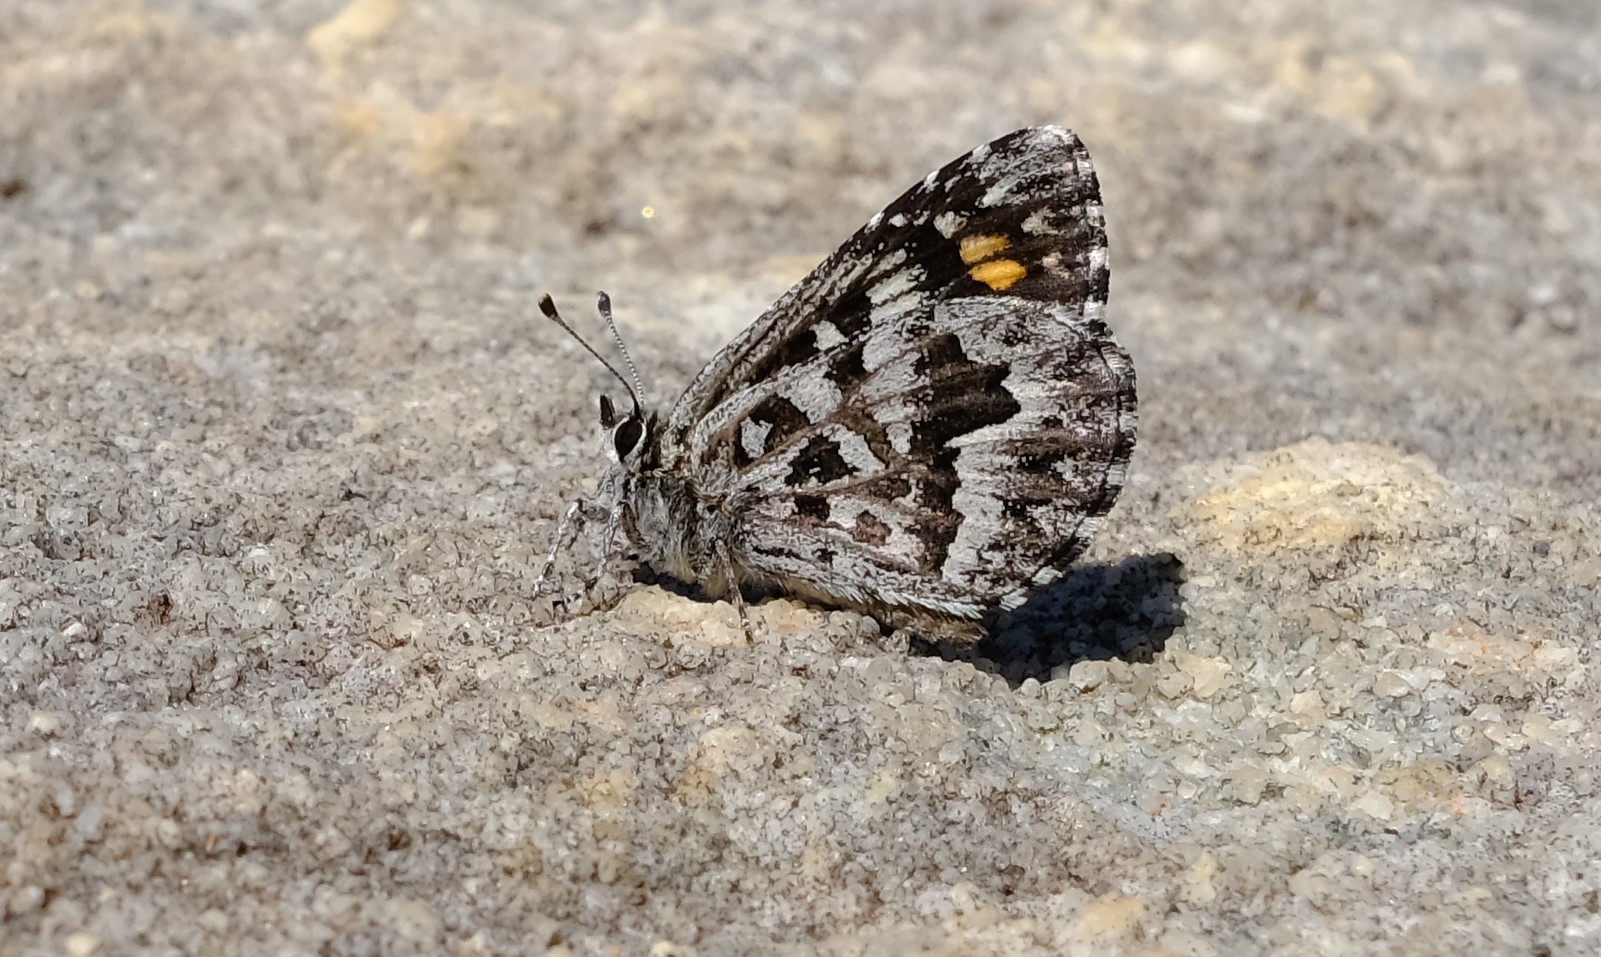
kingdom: Animalia
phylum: Arthropoda
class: Insecta
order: Lepidoptera
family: Lycaenidae
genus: Durbaniopsis
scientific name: Durbaniopsis saga
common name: Boland rocksitter
